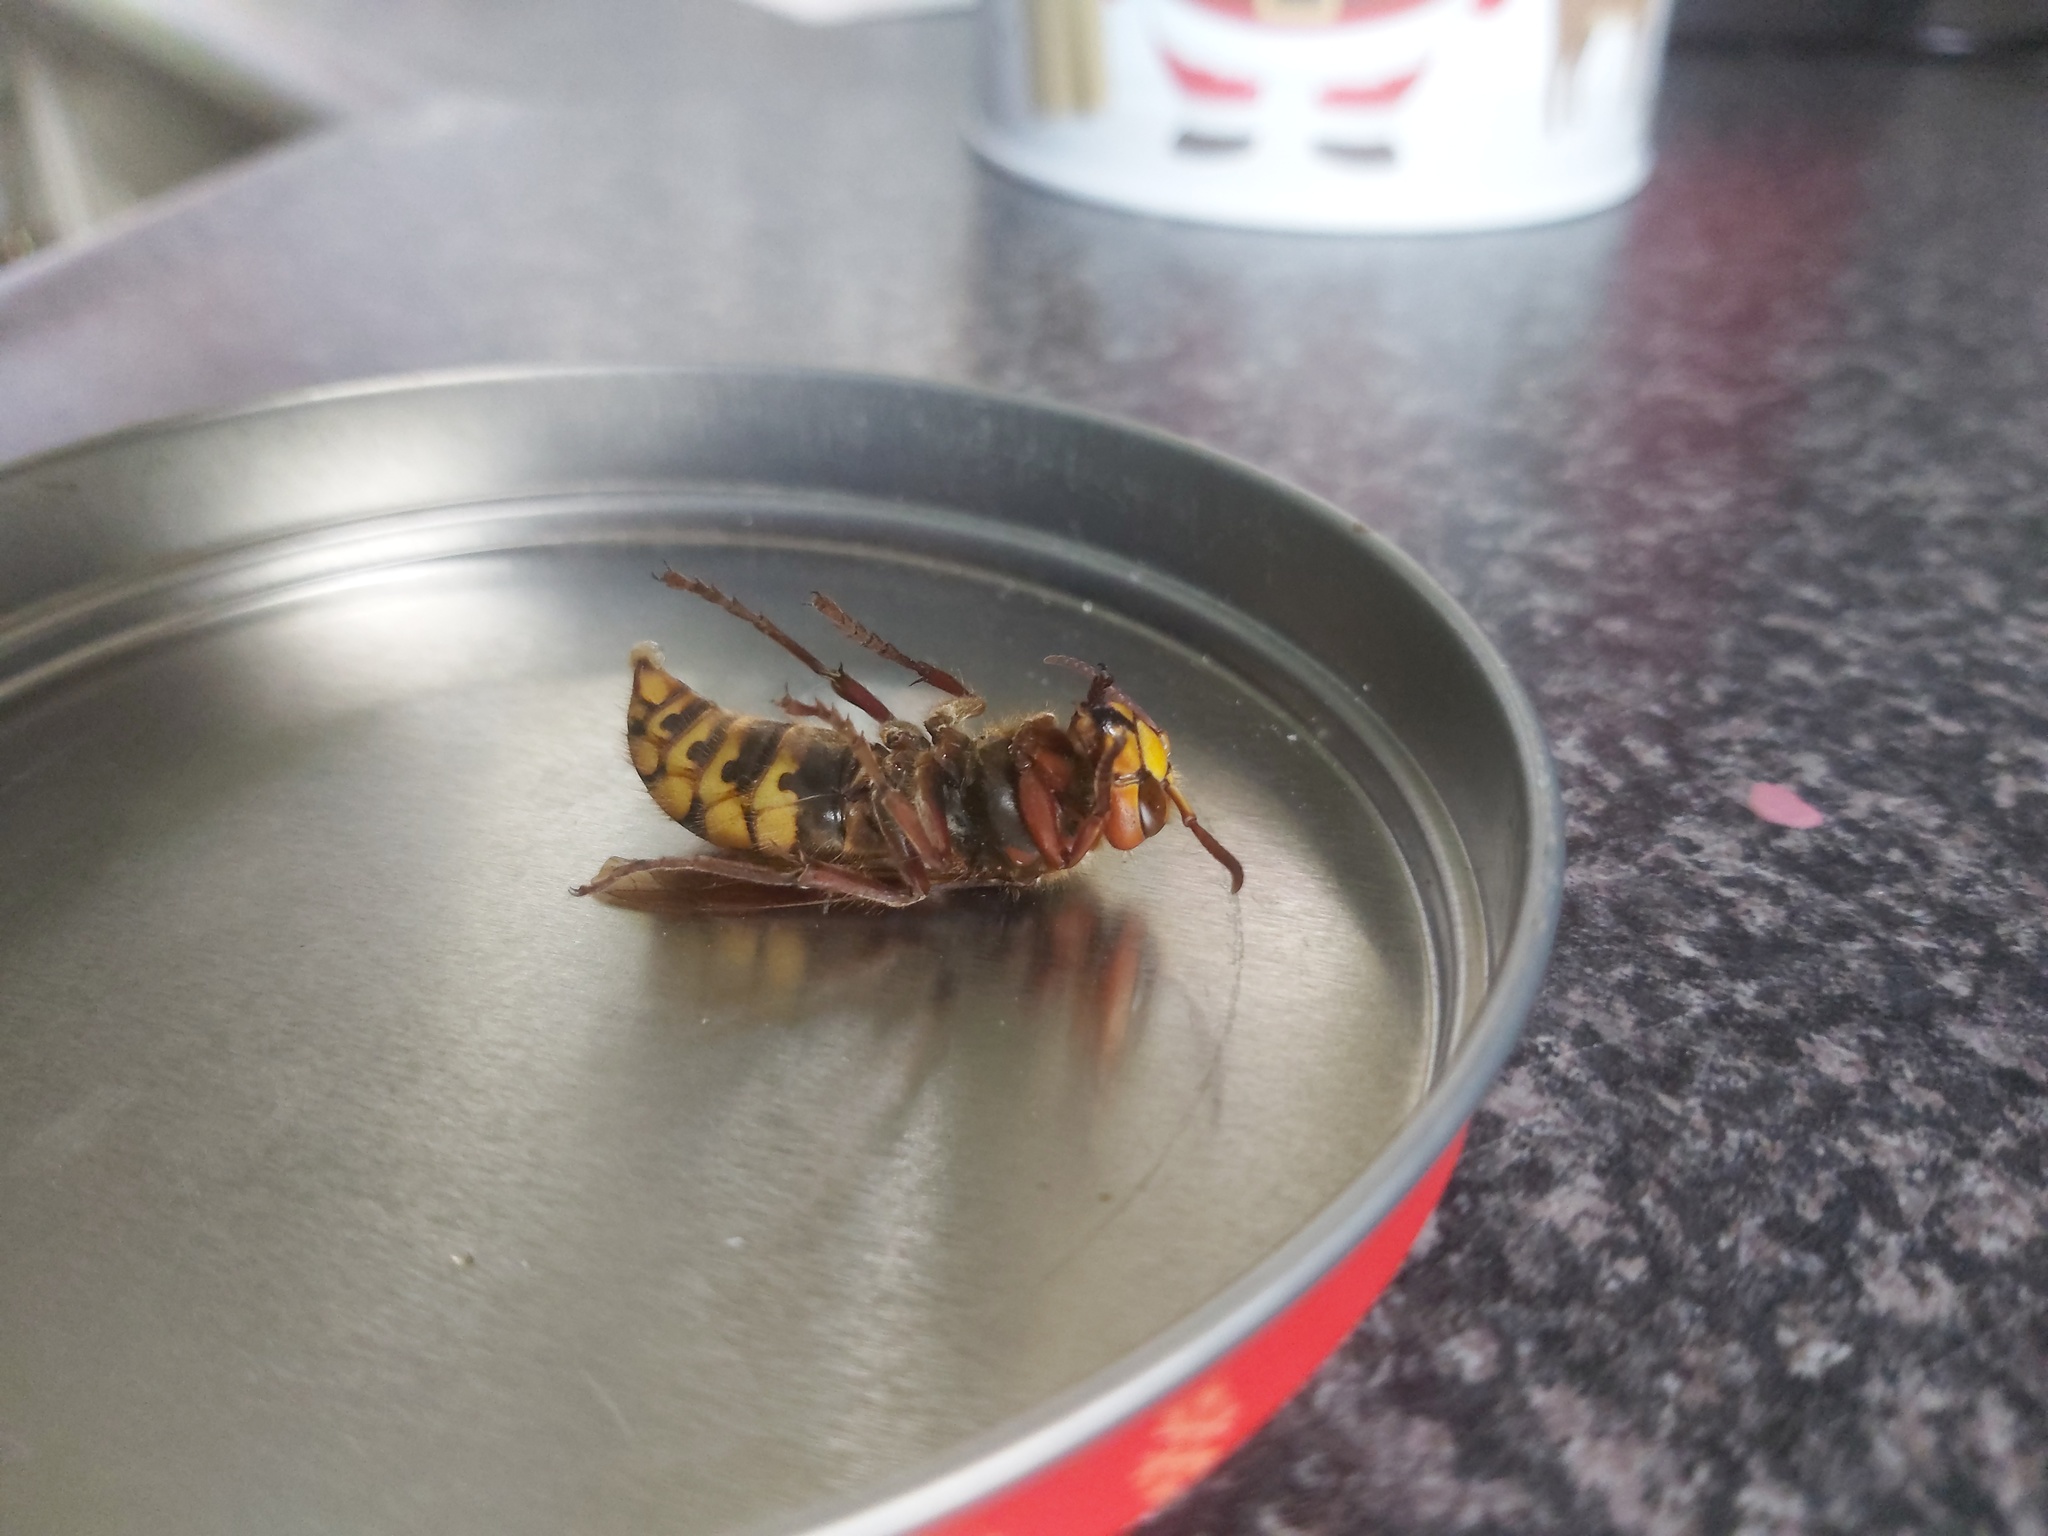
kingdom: Animalia
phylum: Arthropoda
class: Insecta
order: Hymenoptera
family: Vespidae
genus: Vespa
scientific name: Vespa crabro
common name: Hornet
